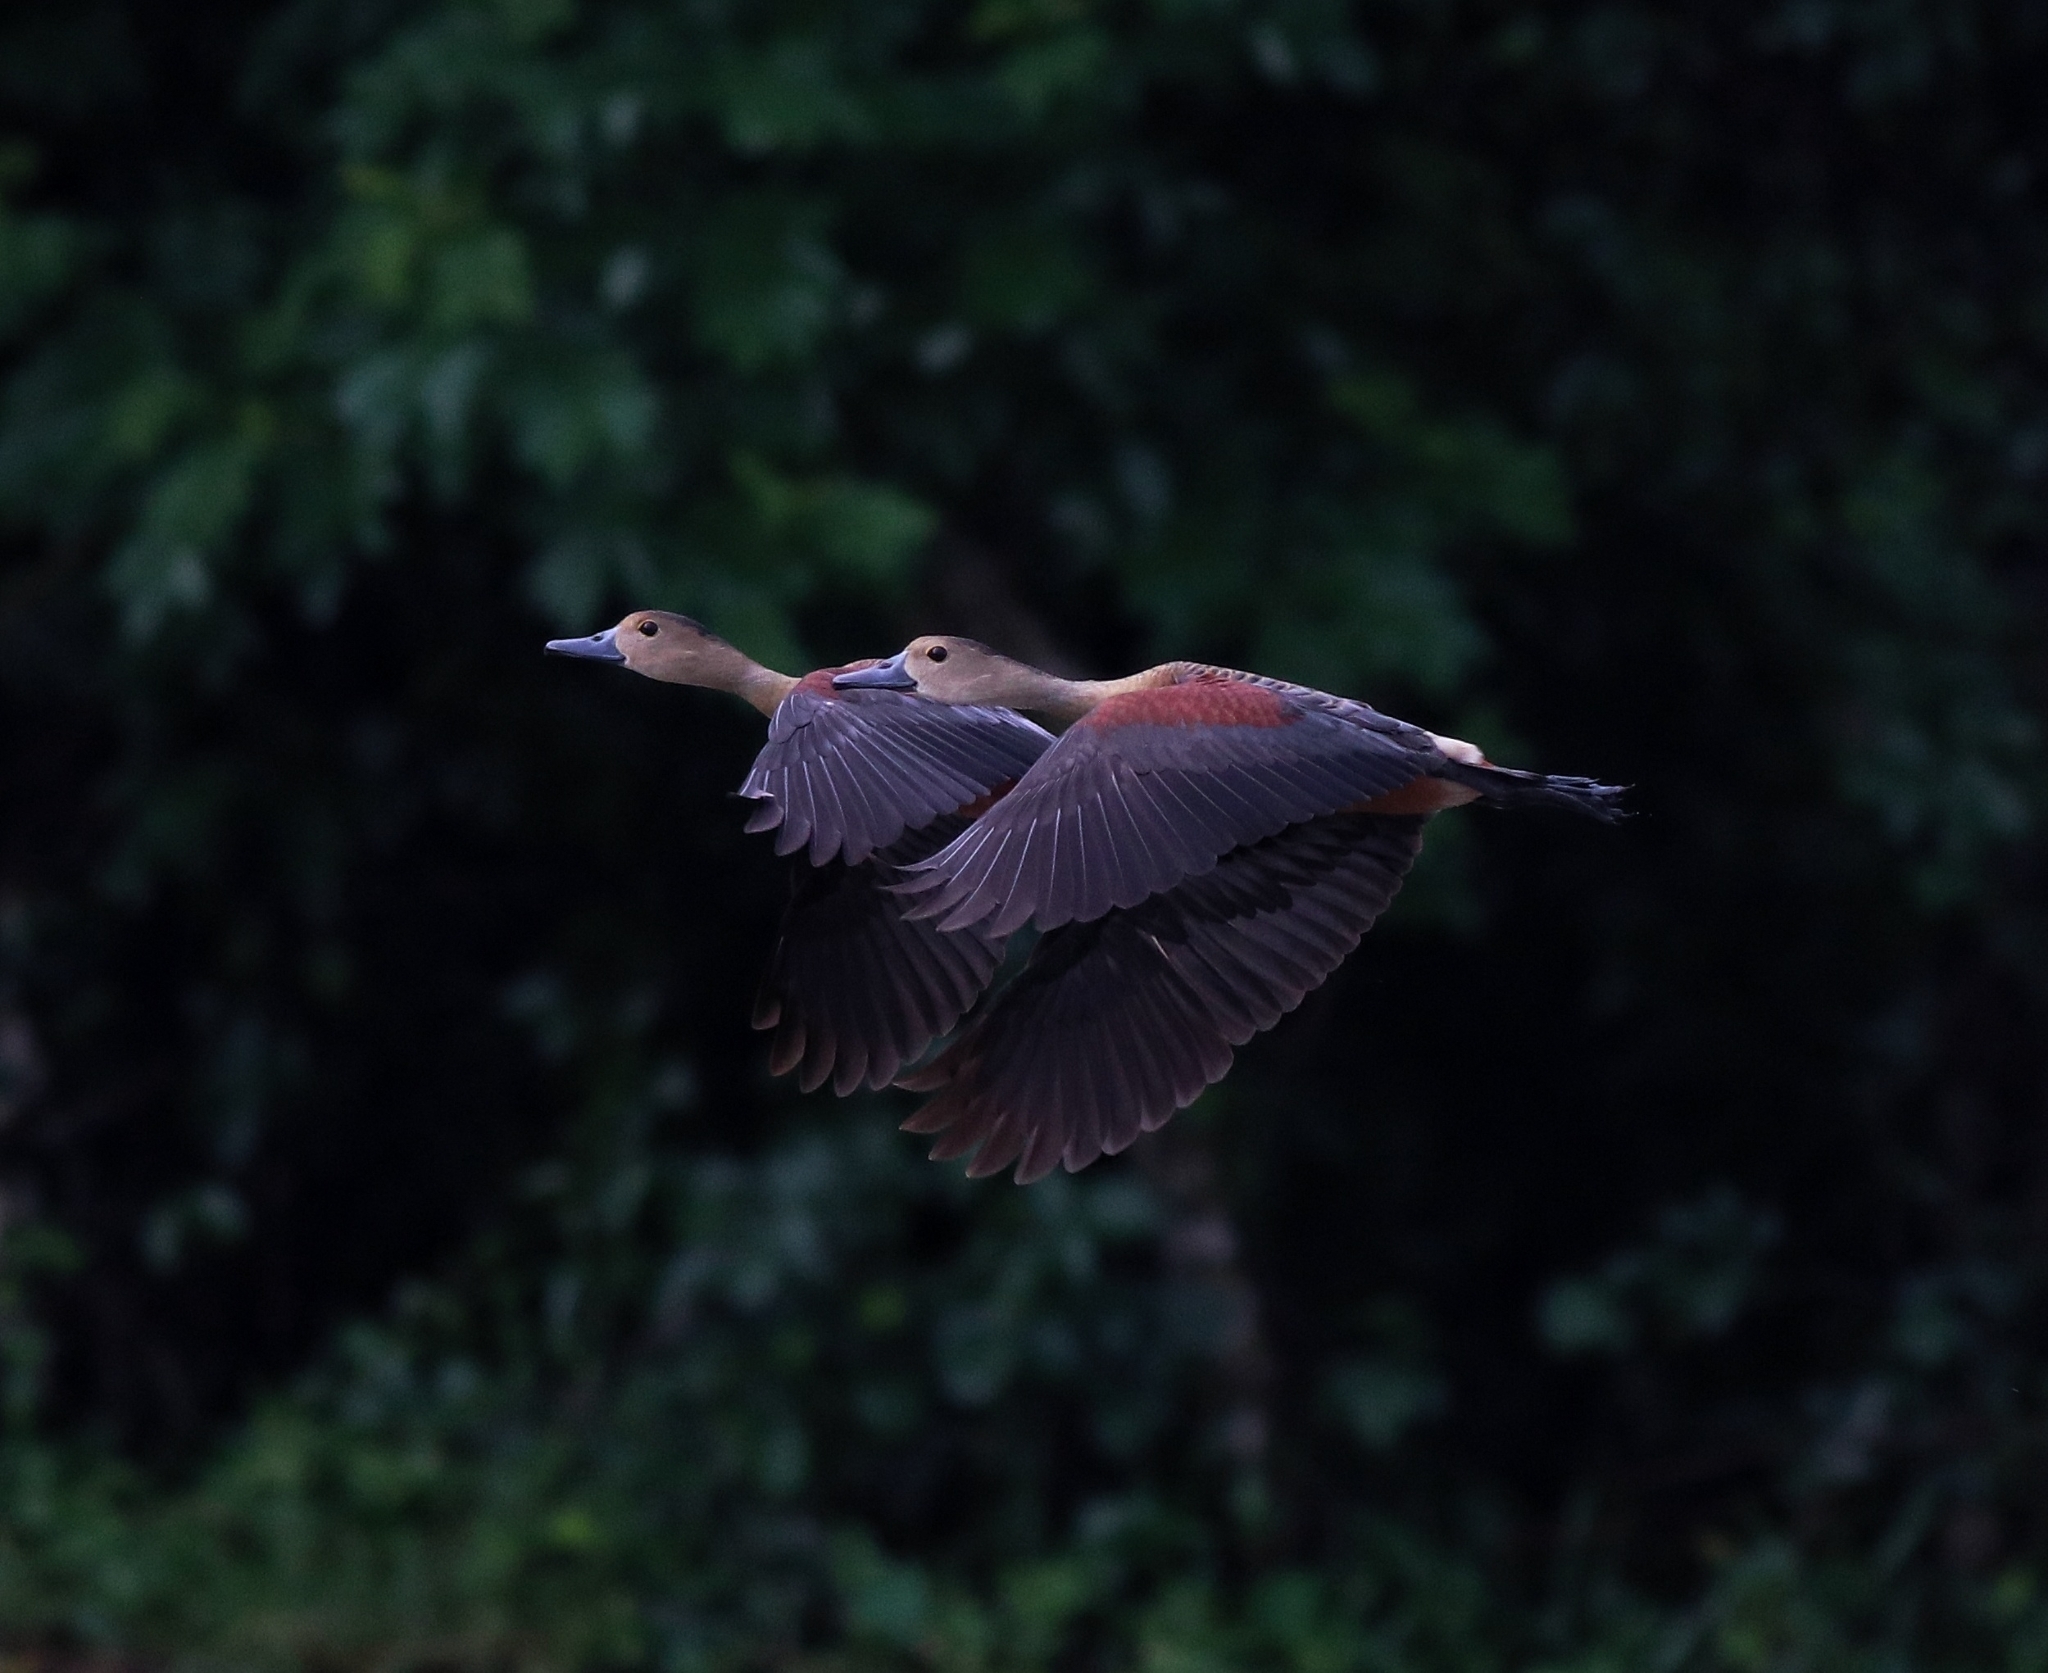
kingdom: Animalia
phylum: Chordata
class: Aves
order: Anseriformes
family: Anatidae
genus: Dendrocygna
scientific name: Dendrocygna javanica
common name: Lesser whistling-duck
